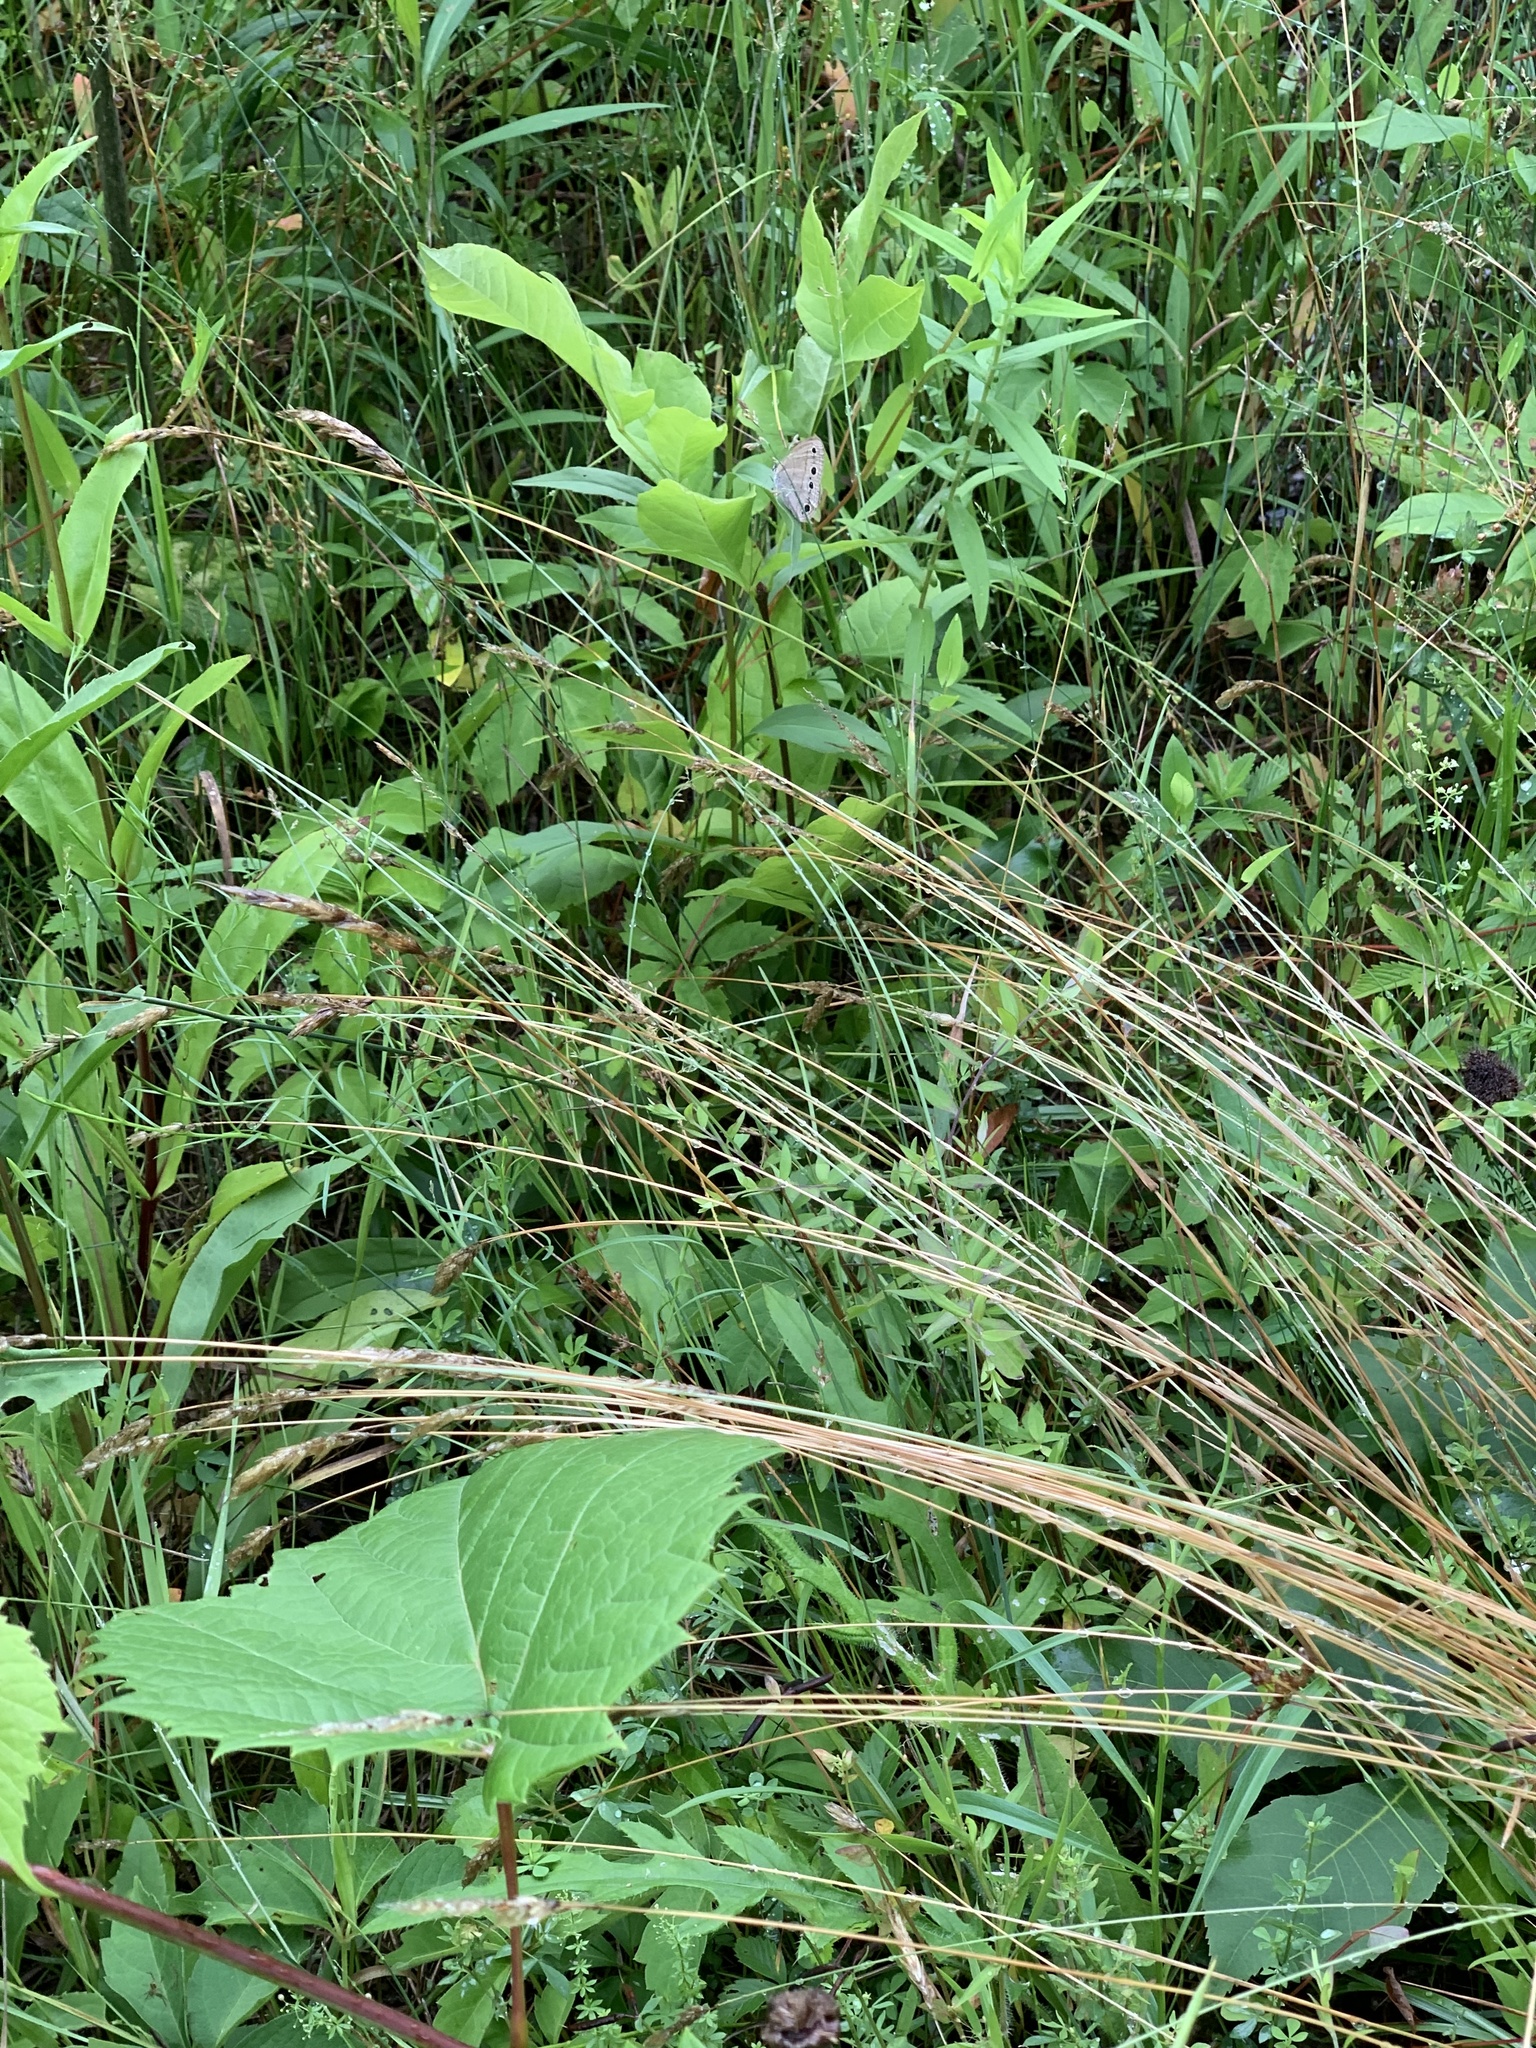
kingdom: Animalia
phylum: Arthropoda
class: Insecta
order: Lepidoptera
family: Nymphalidae
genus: Euptychia
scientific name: Euptychia cymela
